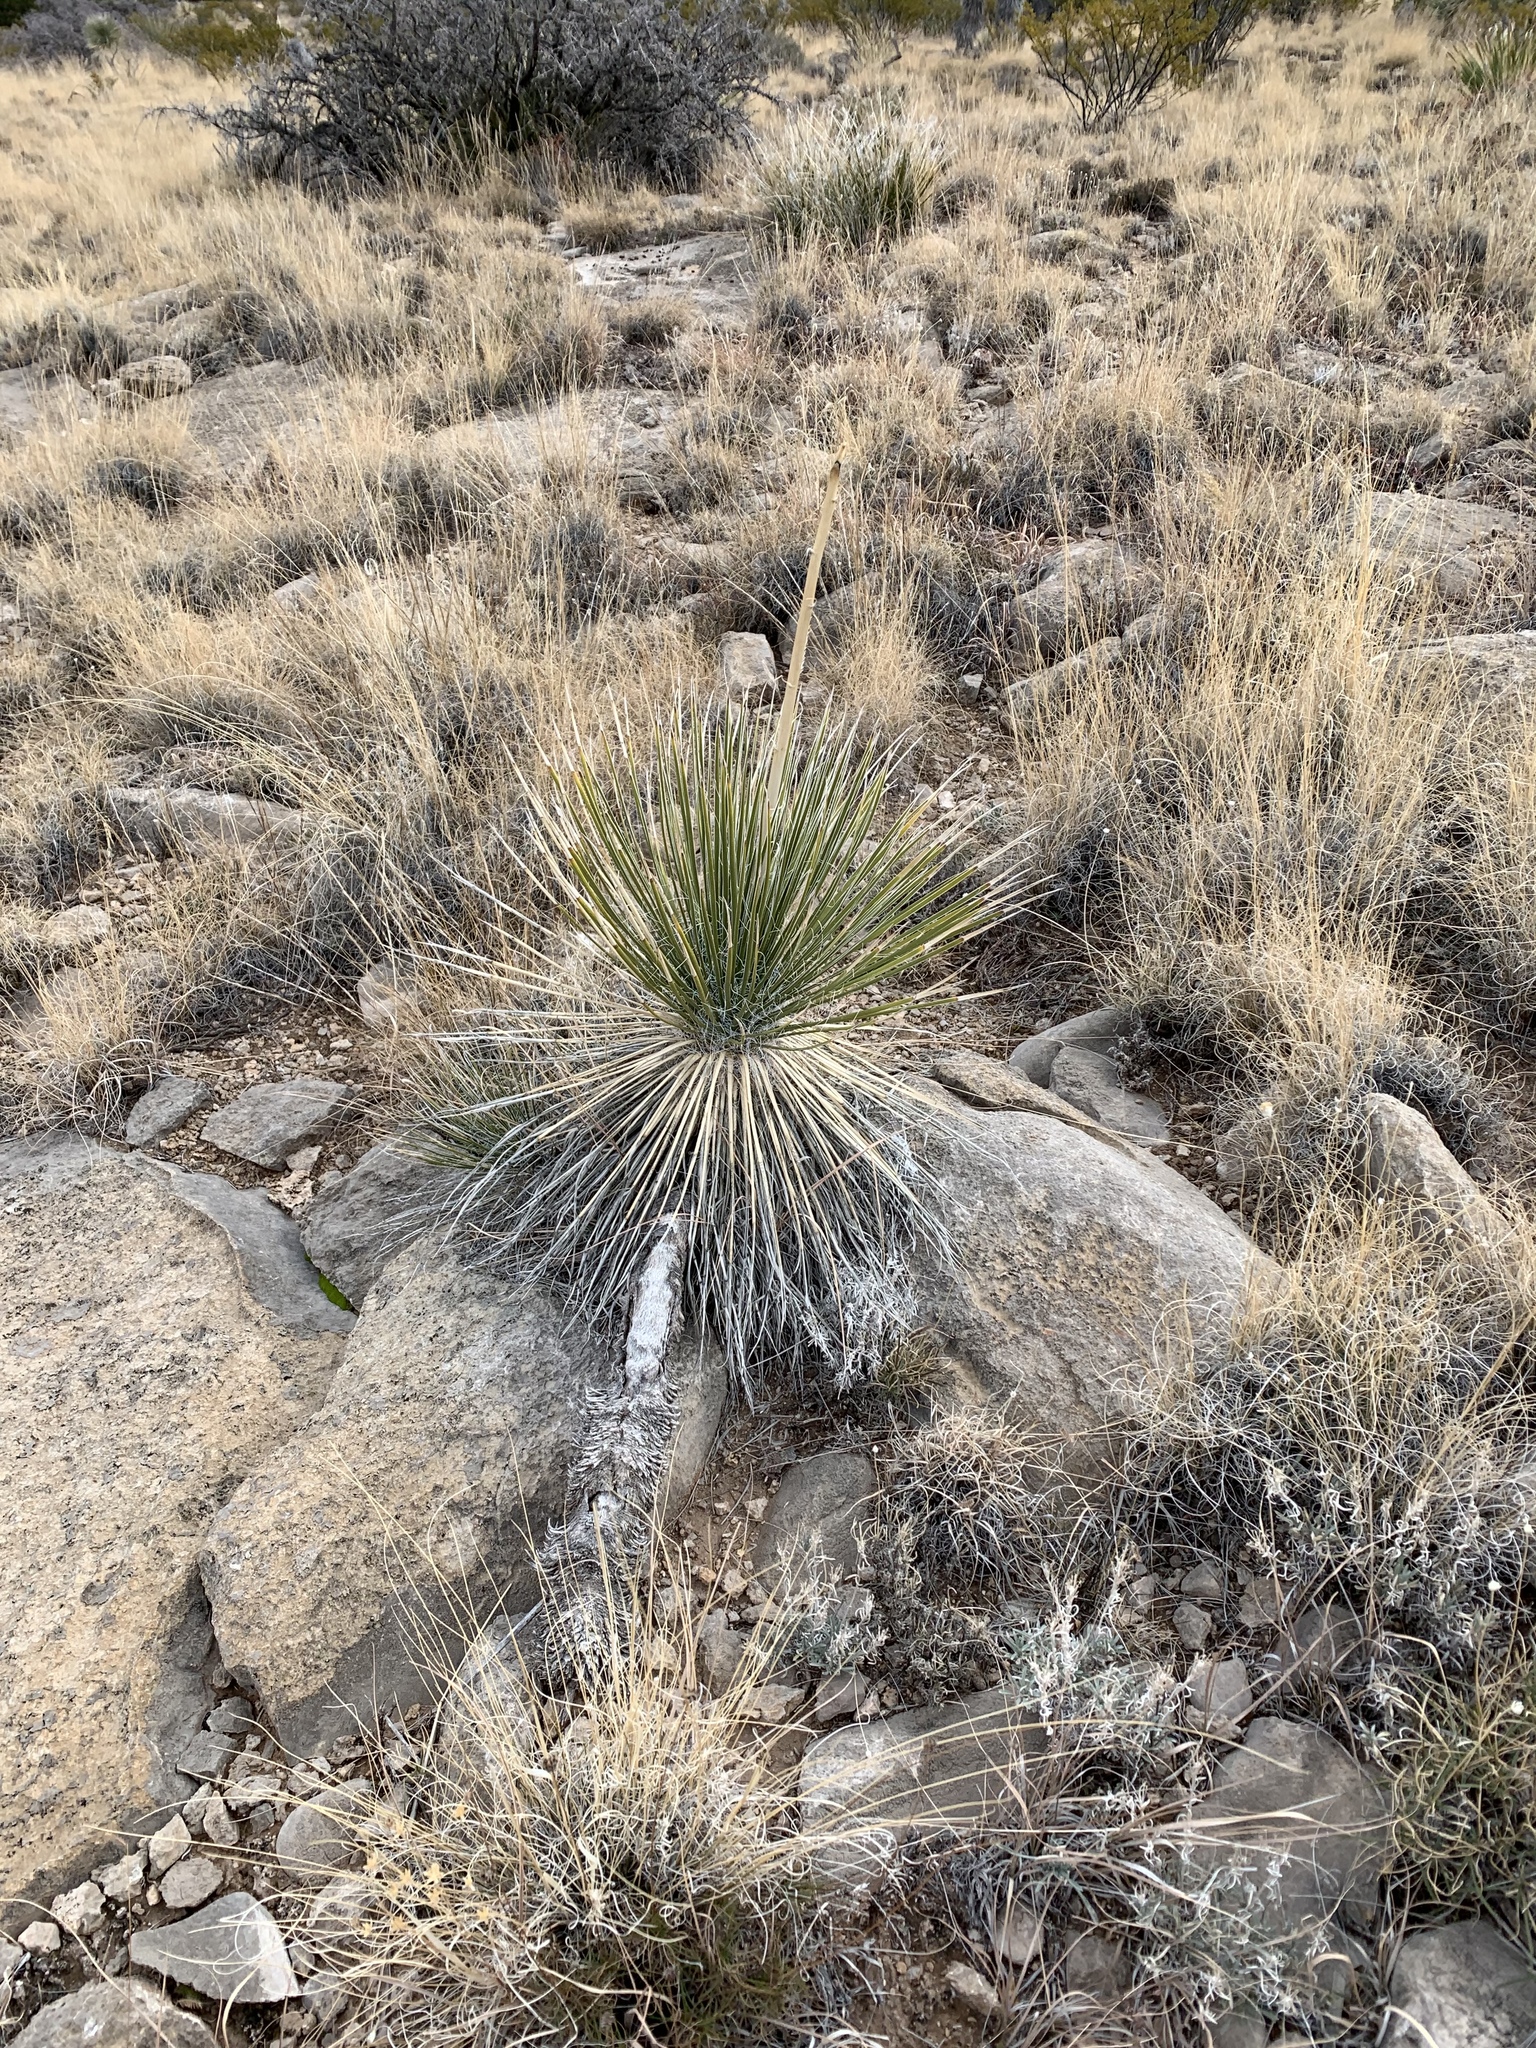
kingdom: Plantae
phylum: Tracheophyta
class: Liliopsida
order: Asparagales
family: Asparagaceae
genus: Yucca
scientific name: Yucca elata
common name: Palmella
